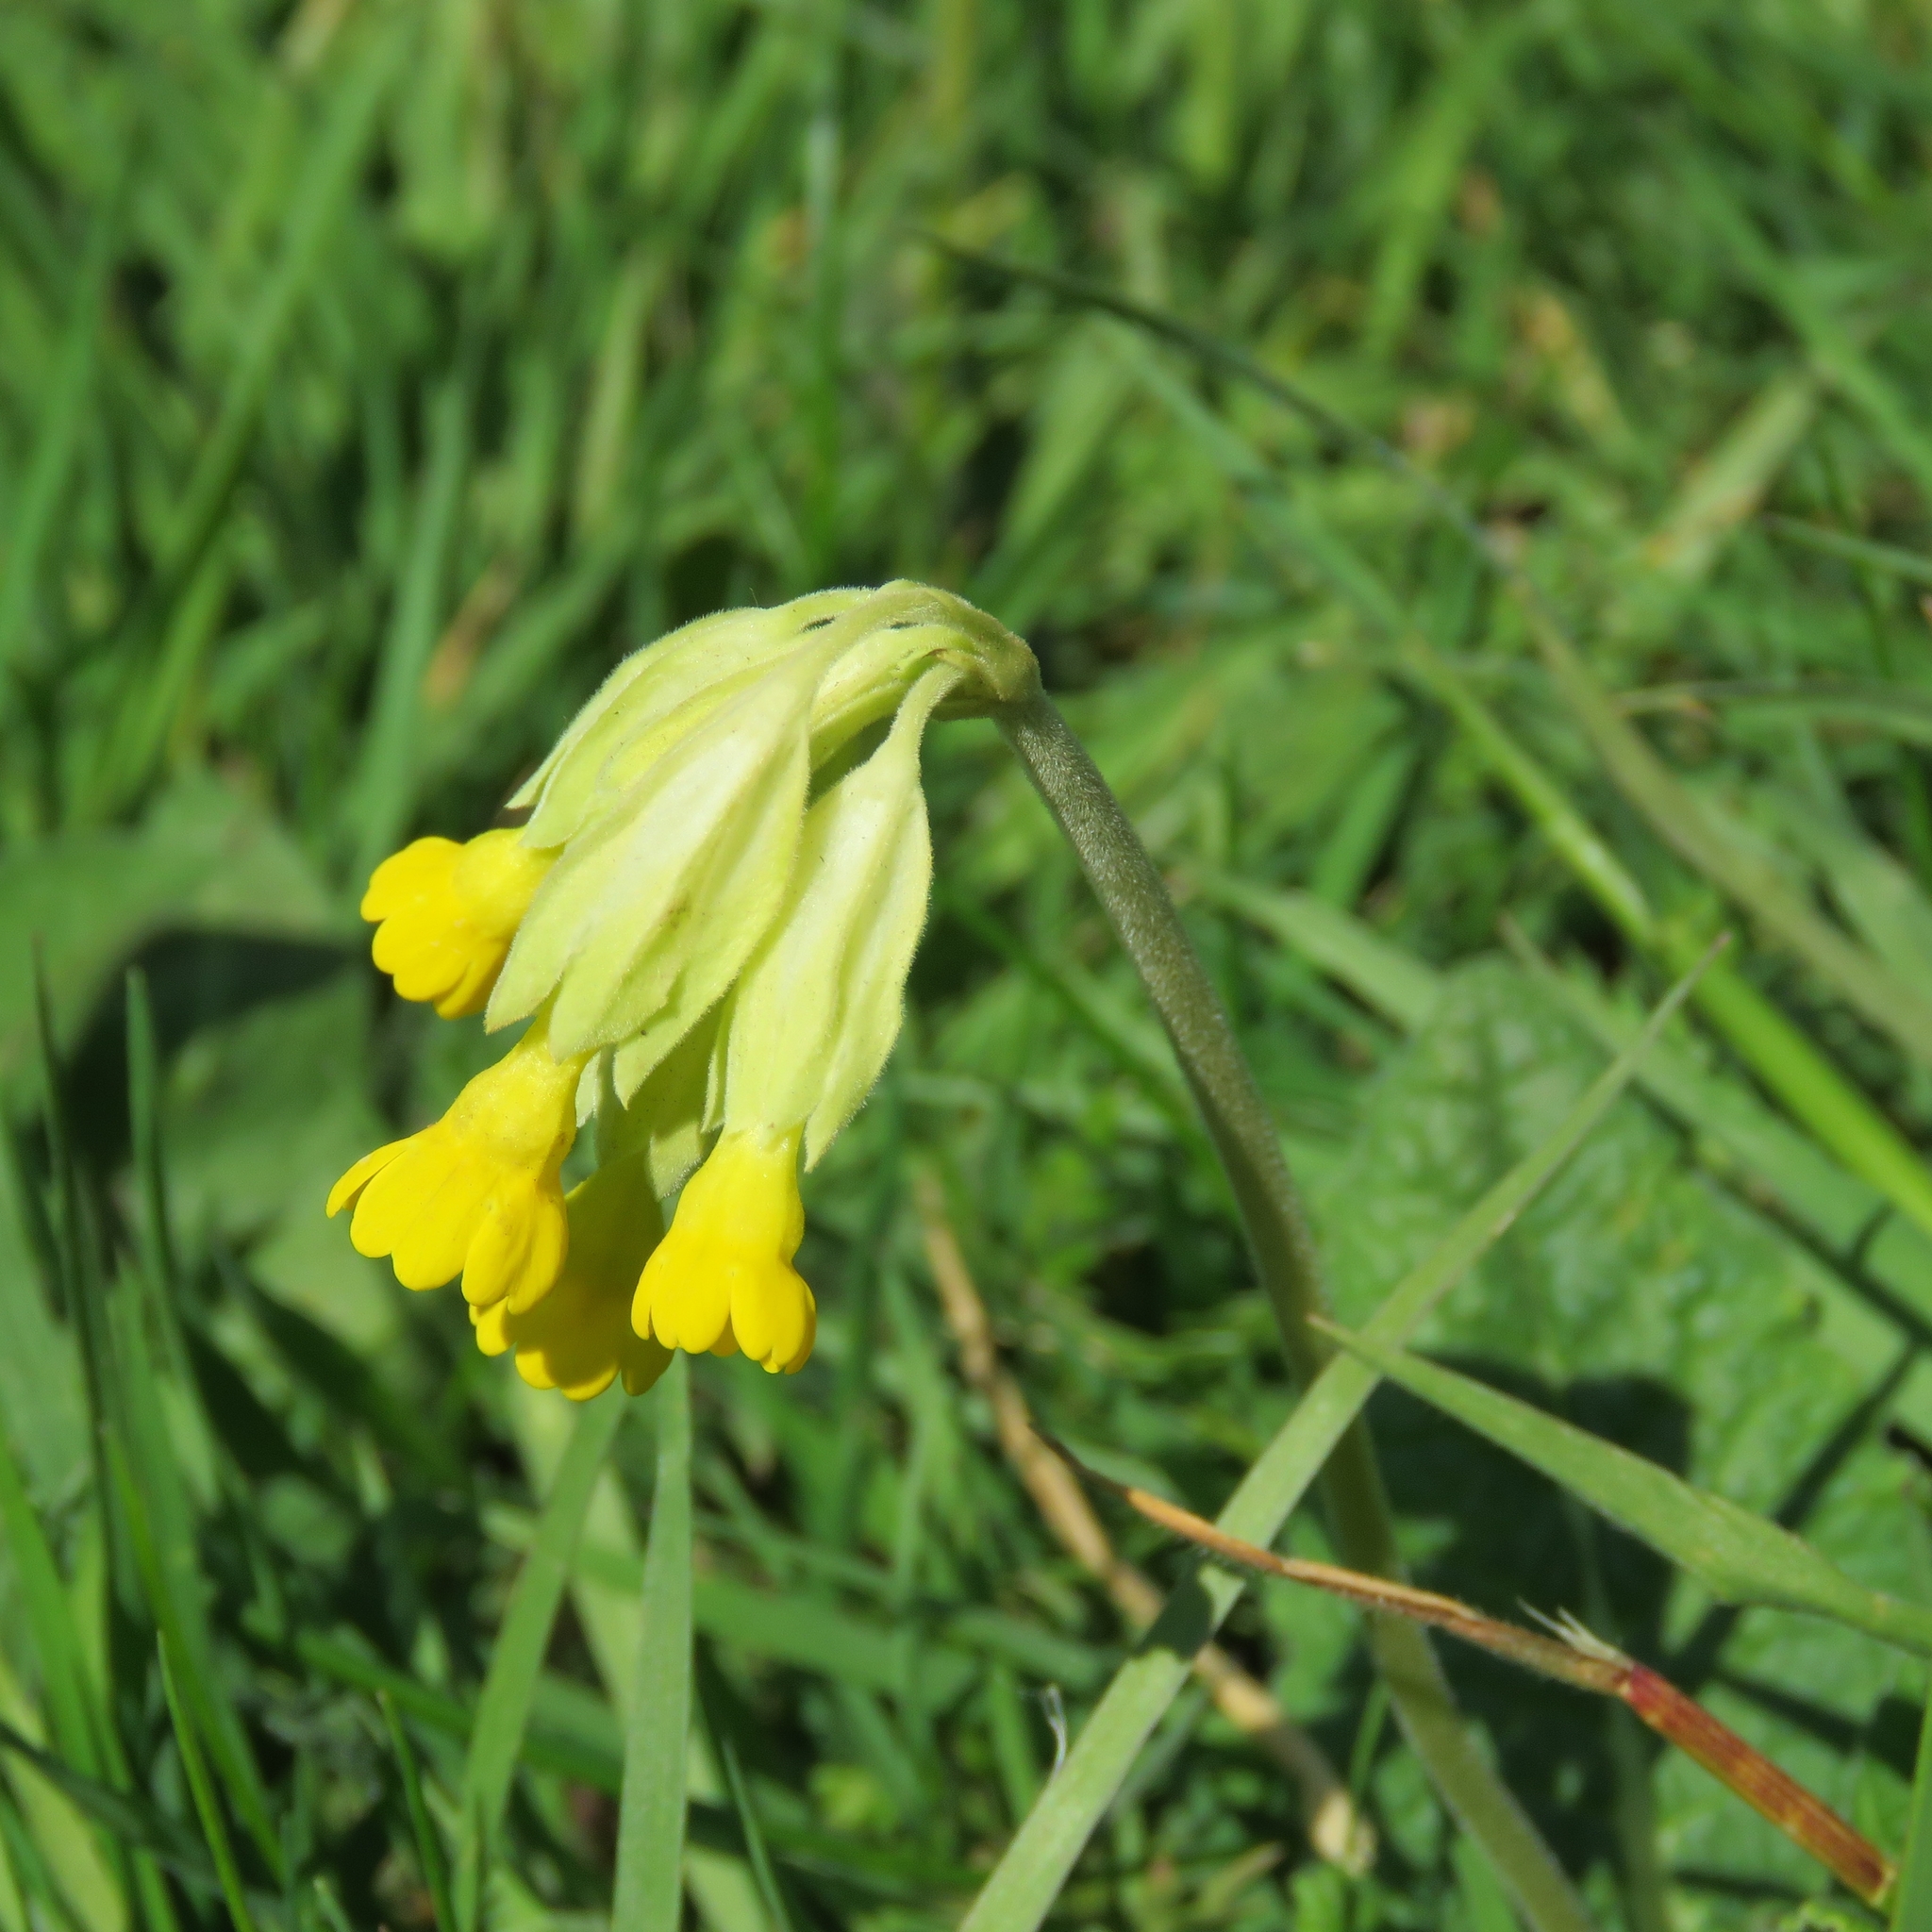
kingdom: Plantae
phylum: Tracheophyta
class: Magnoliopsida
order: Ericales
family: Primulaceae
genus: Primula
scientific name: Primula veris
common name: Cowslip
